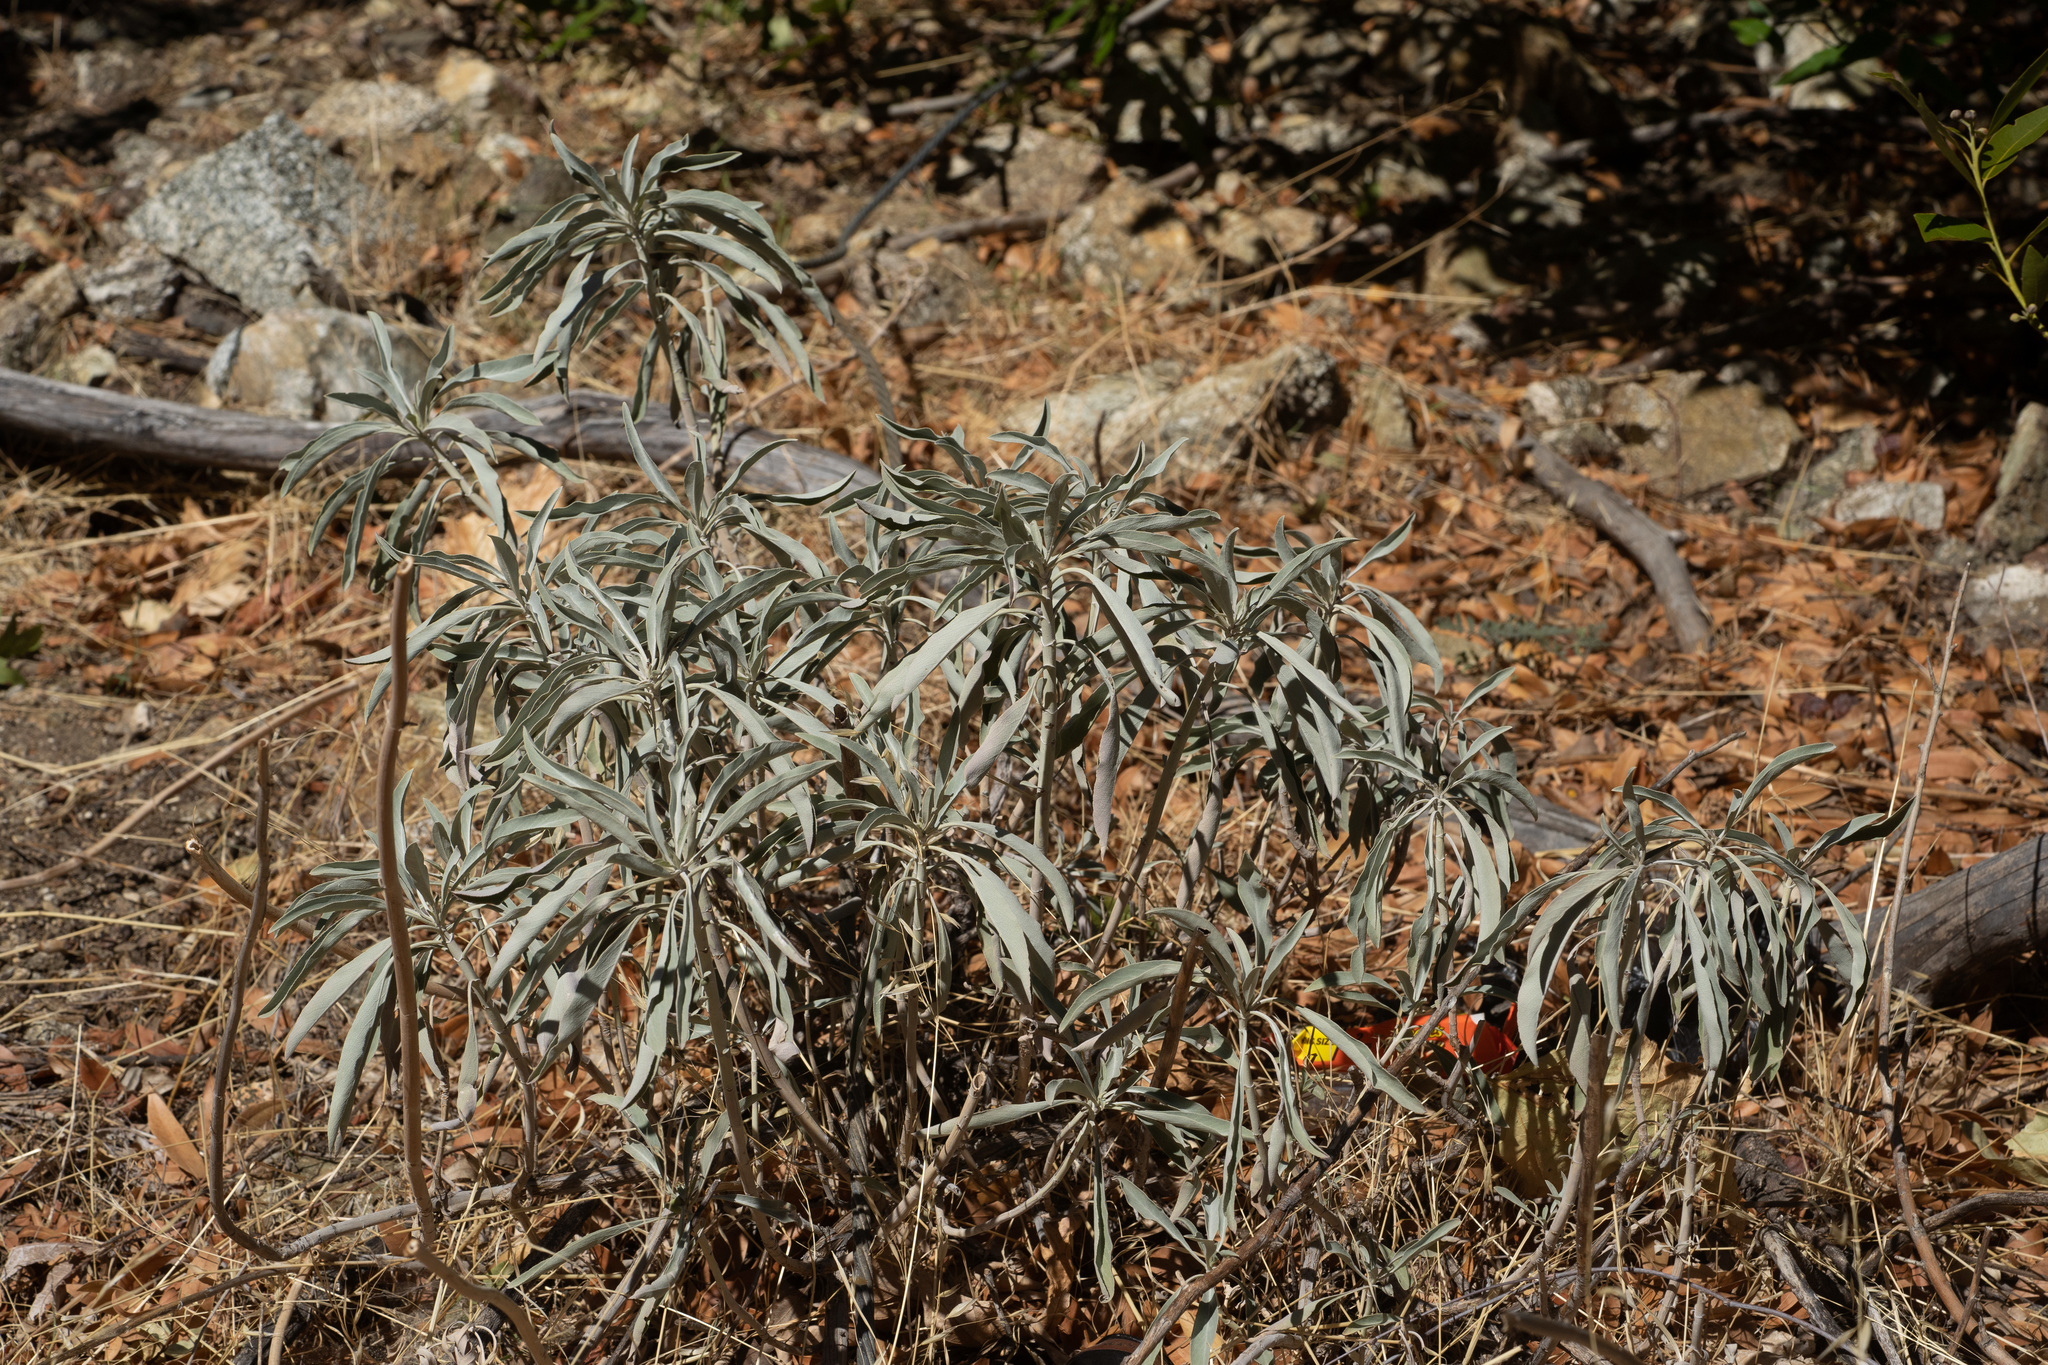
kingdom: Plantae
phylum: Tracheophyta
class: Magnoliopsida
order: Lamiales
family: Lamiaceae
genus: Salvia
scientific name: Salvia apiana
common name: White sage
